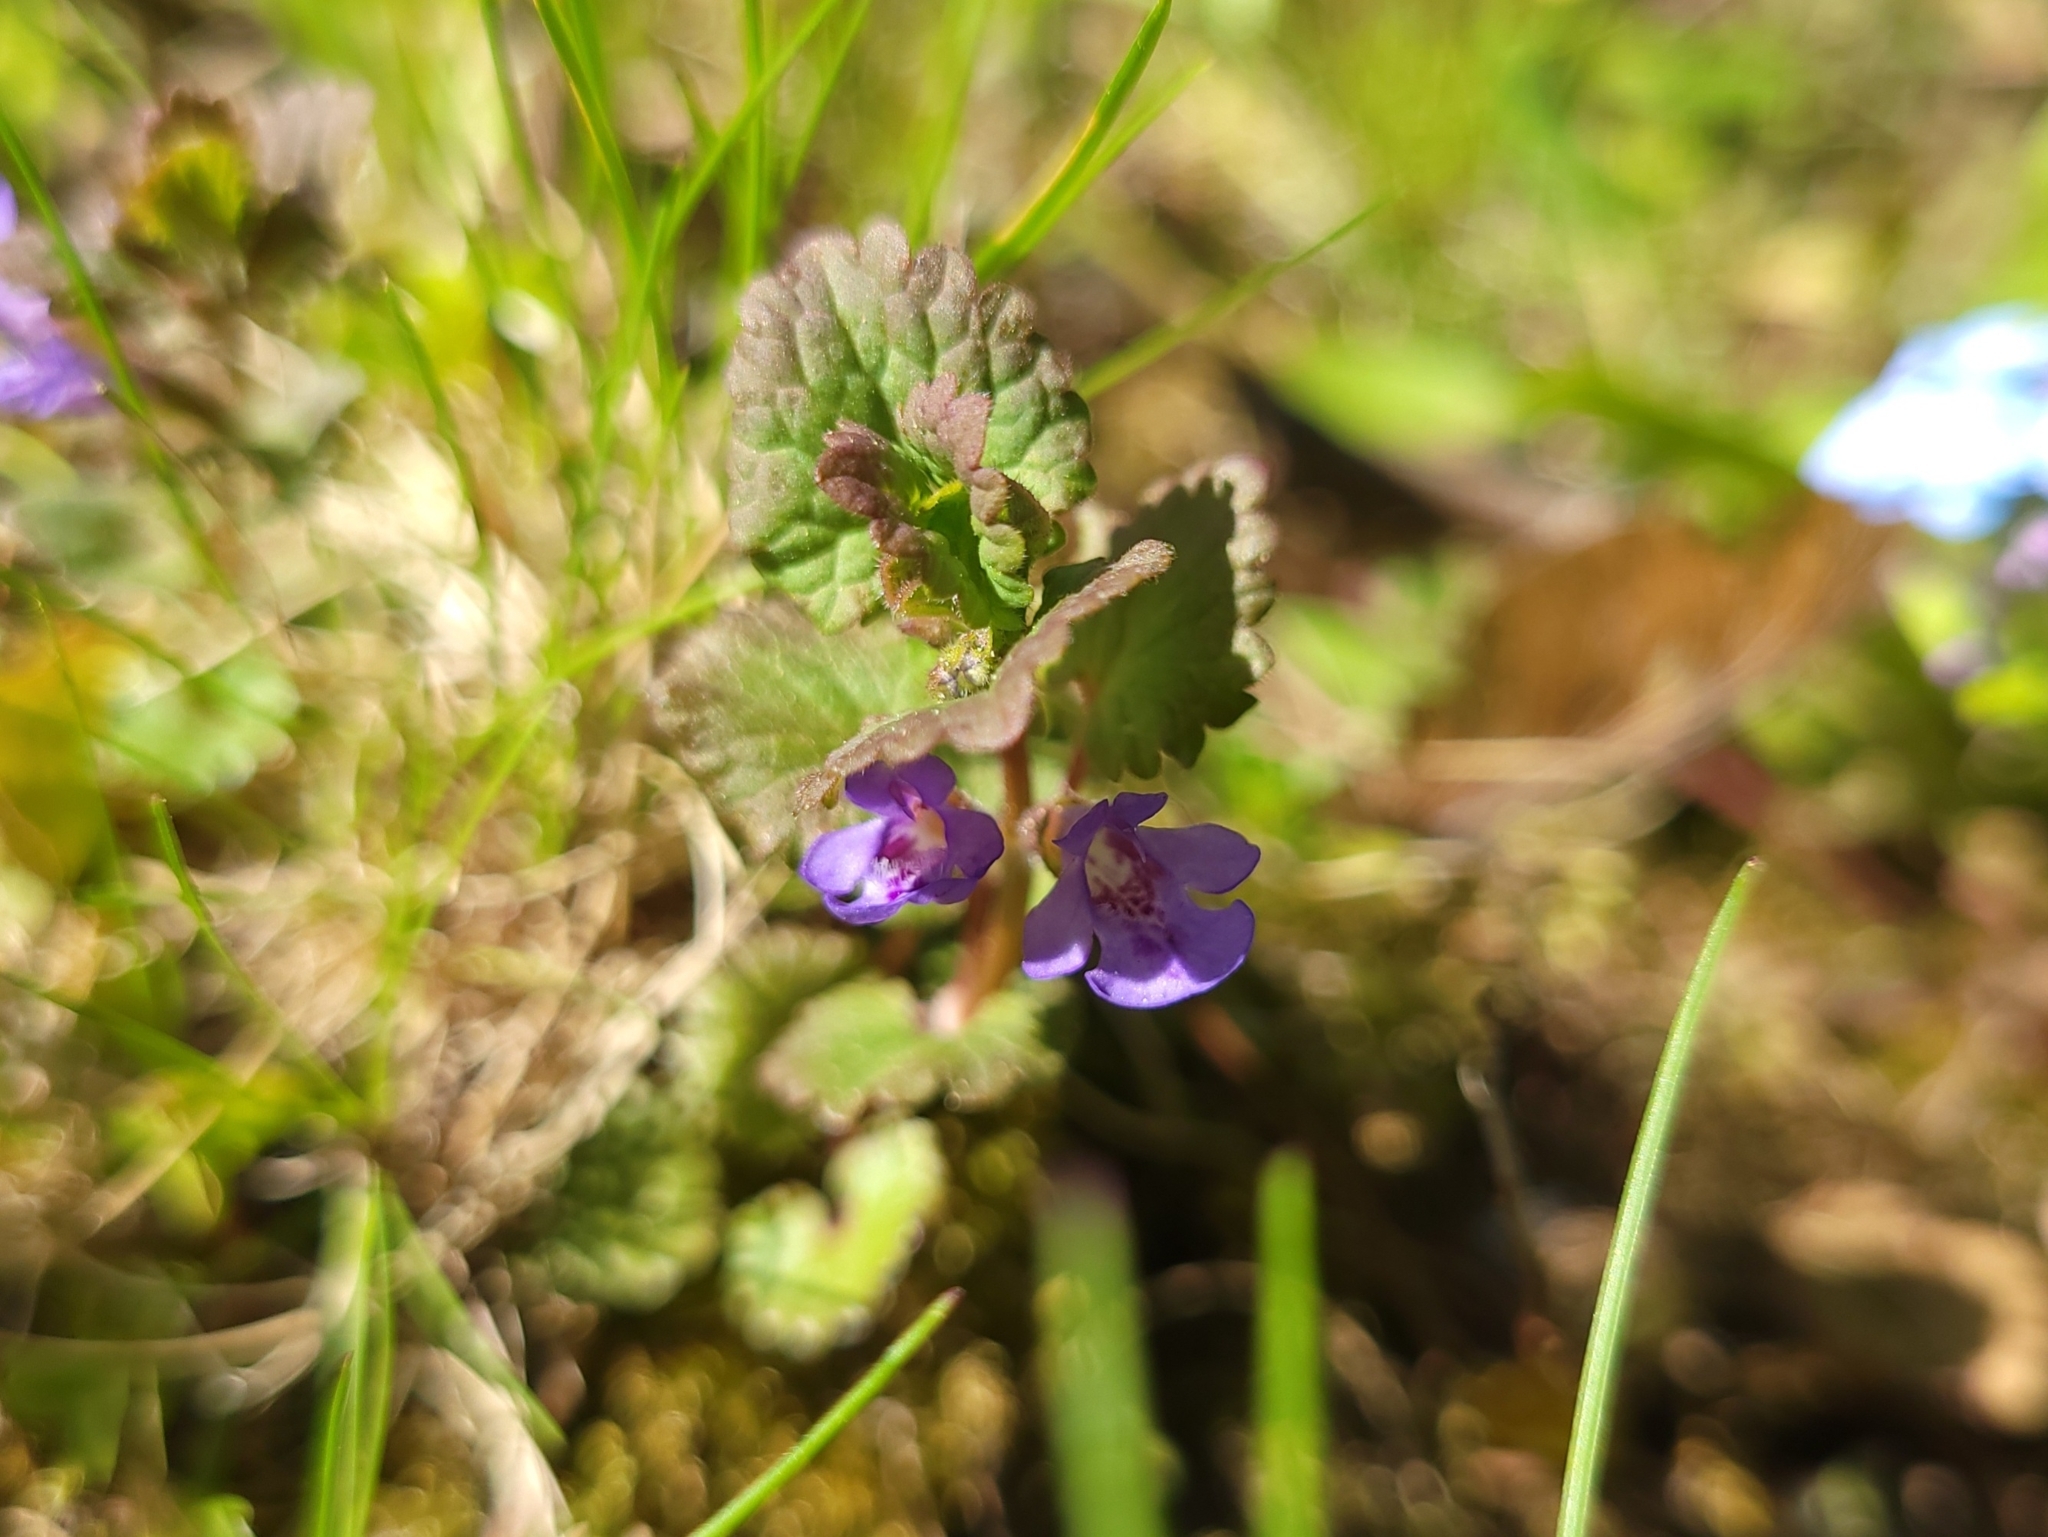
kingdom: Plantae
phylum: Tracheophyta
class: Magnoliopsida
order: Lamiales
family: Lamiaceae
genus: Glechoma
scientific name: Glechoma hederacea
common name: Ground ivy
